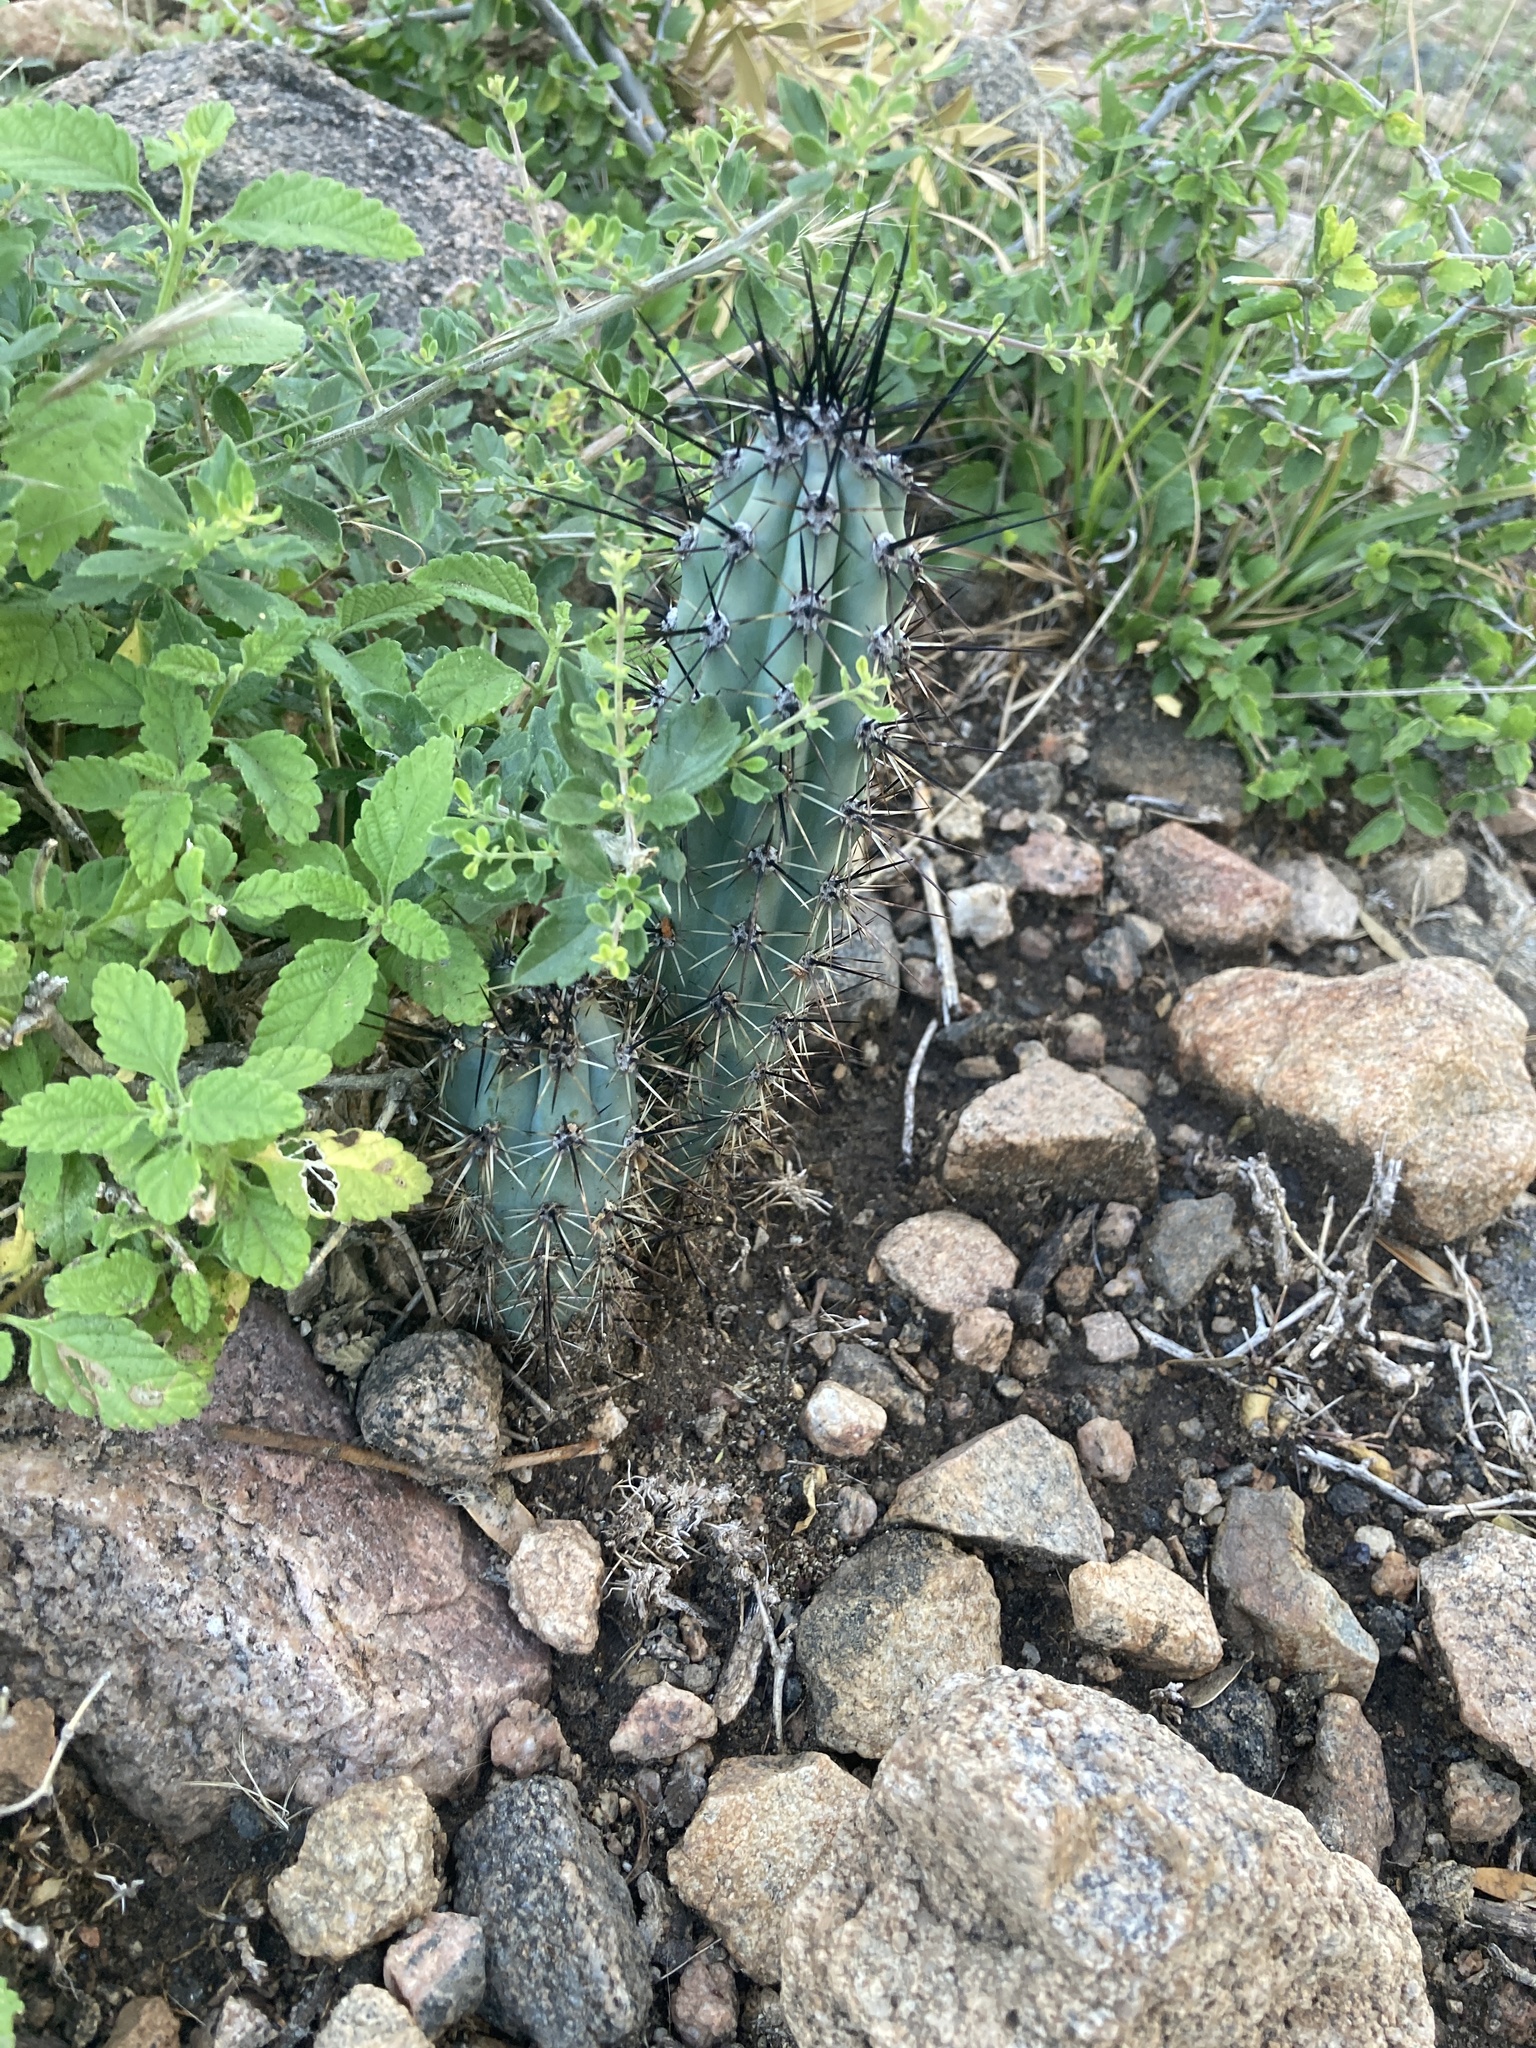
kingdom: Plantae
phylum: Tracheophyta
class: Magnoliopsida
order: Caryophyllales
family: Cactaceae
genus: Cereus
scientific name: Cereus aethiops
